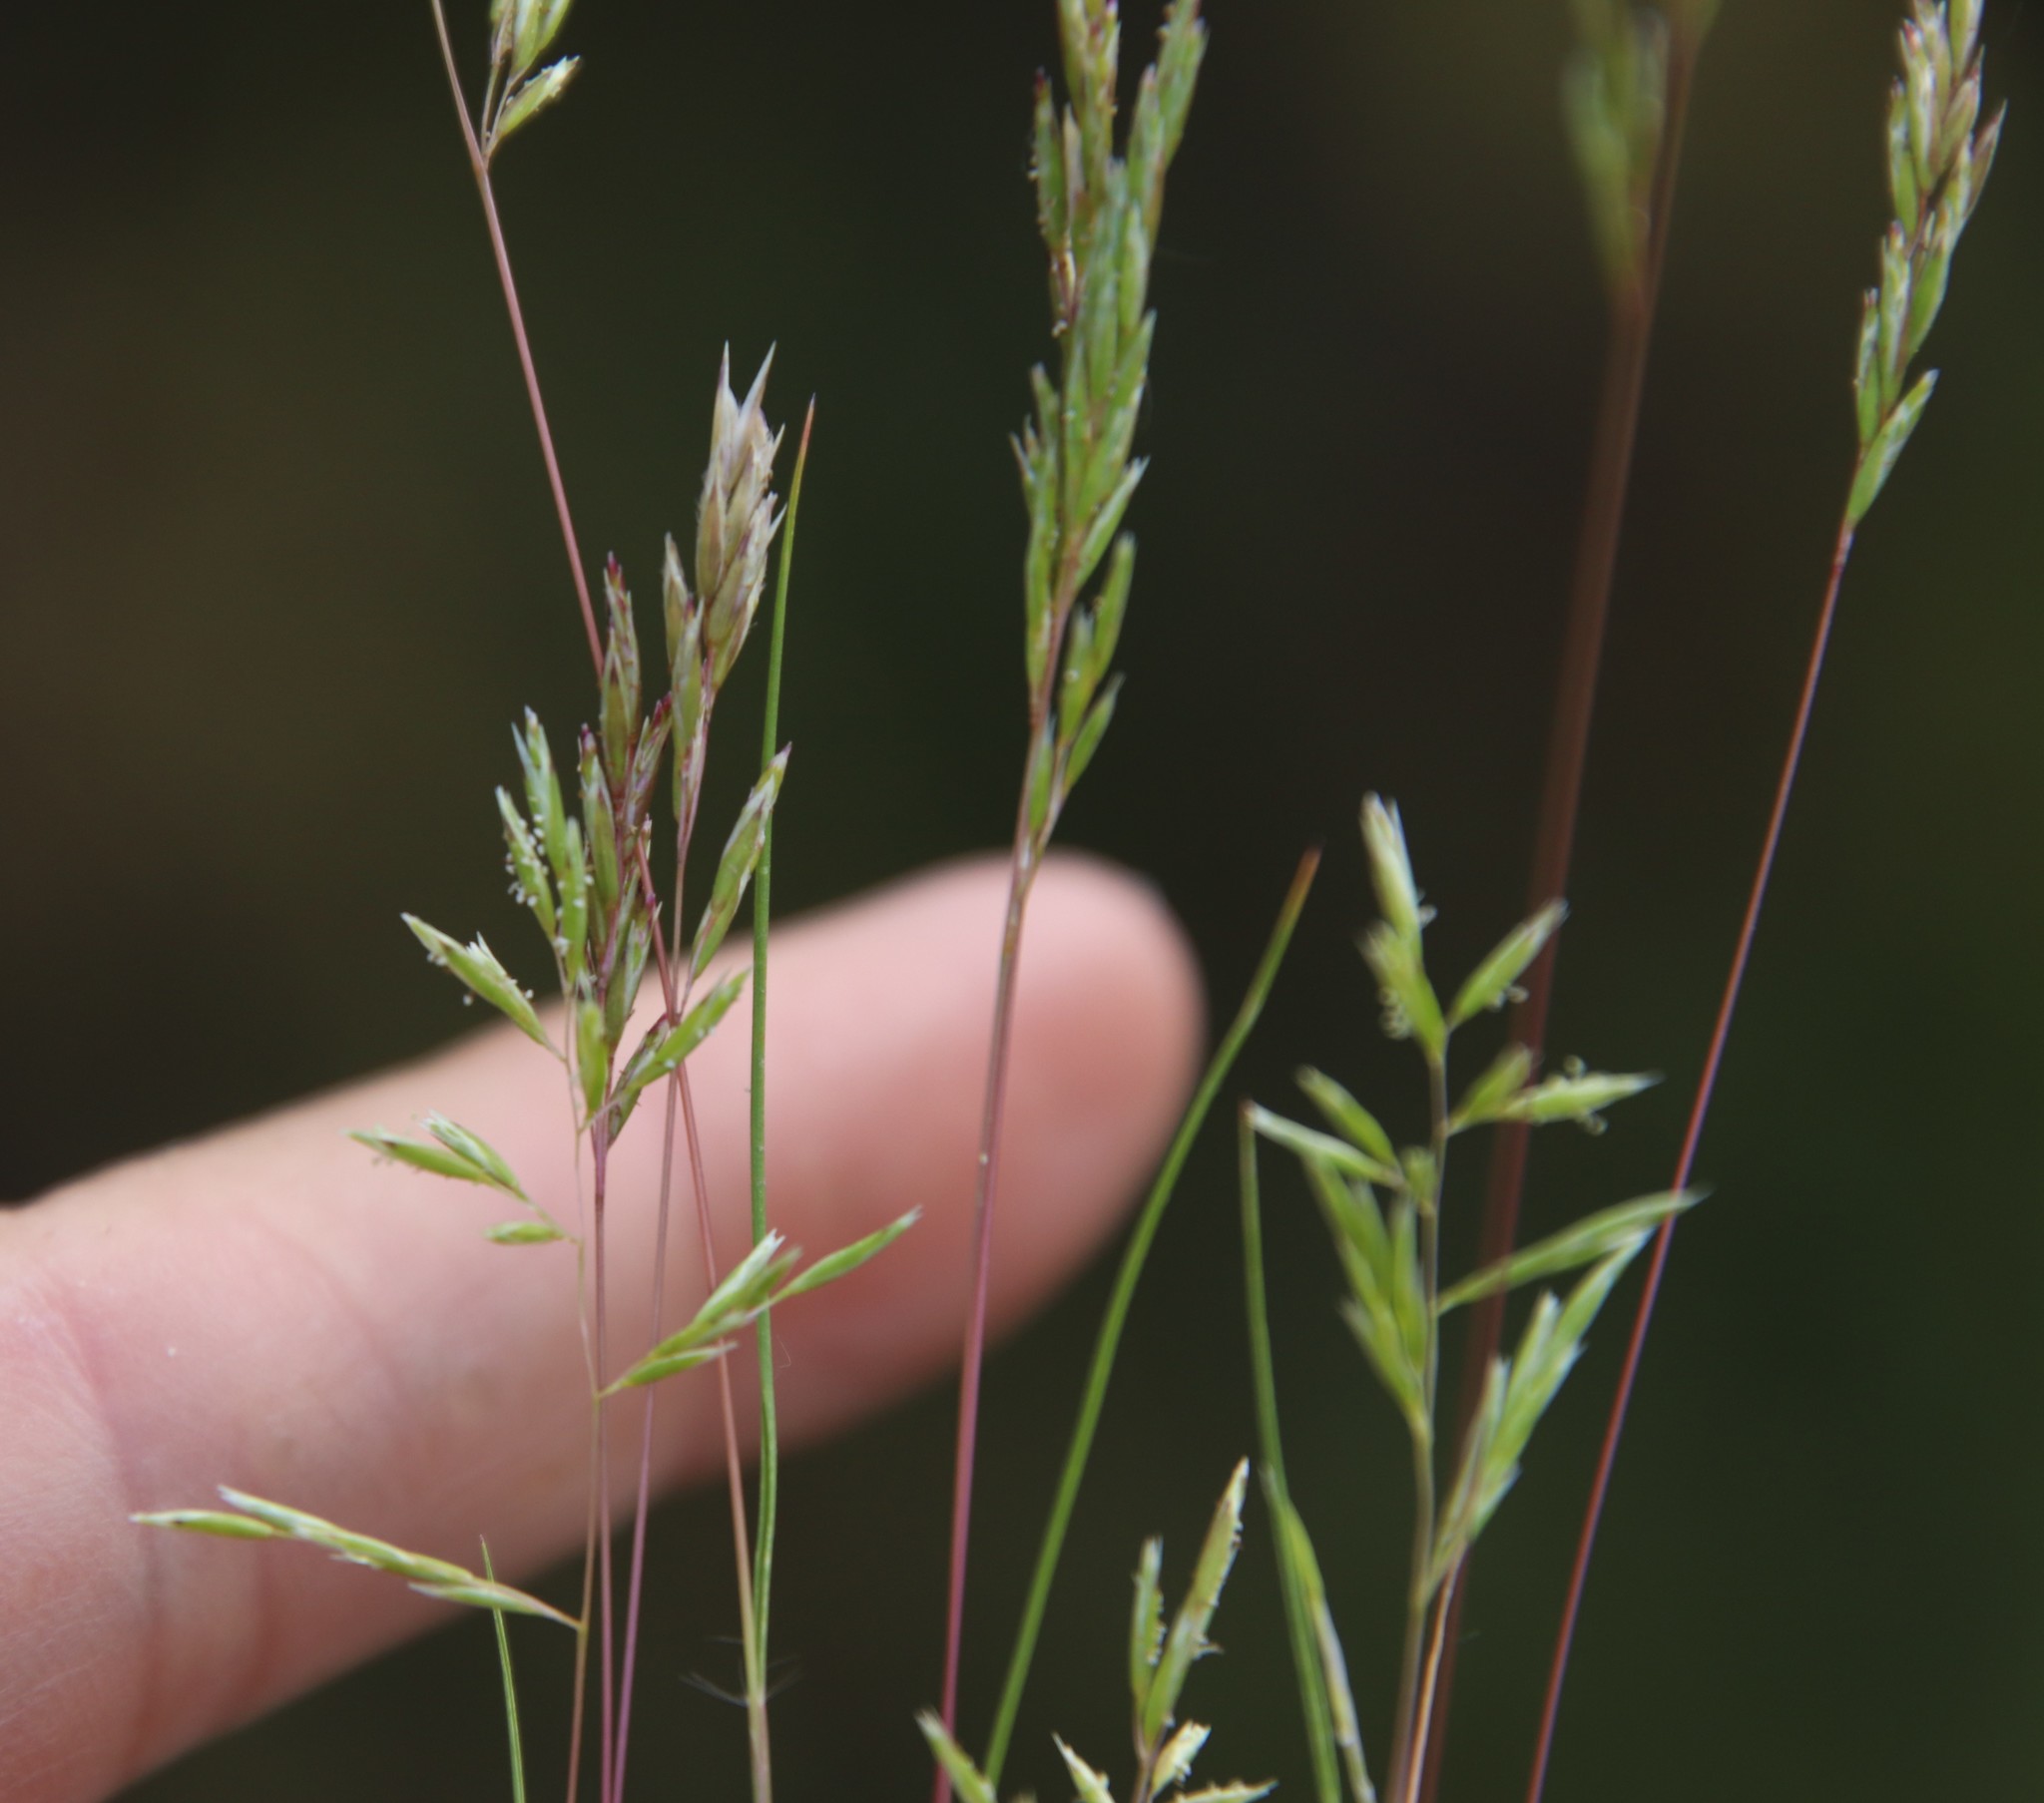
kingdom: Plantae
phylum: Tracheophyta
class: Liliopsida
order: Poales
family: Poaceae
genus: Schismus
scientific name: Schismus barbatus
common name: Kelch-grass
